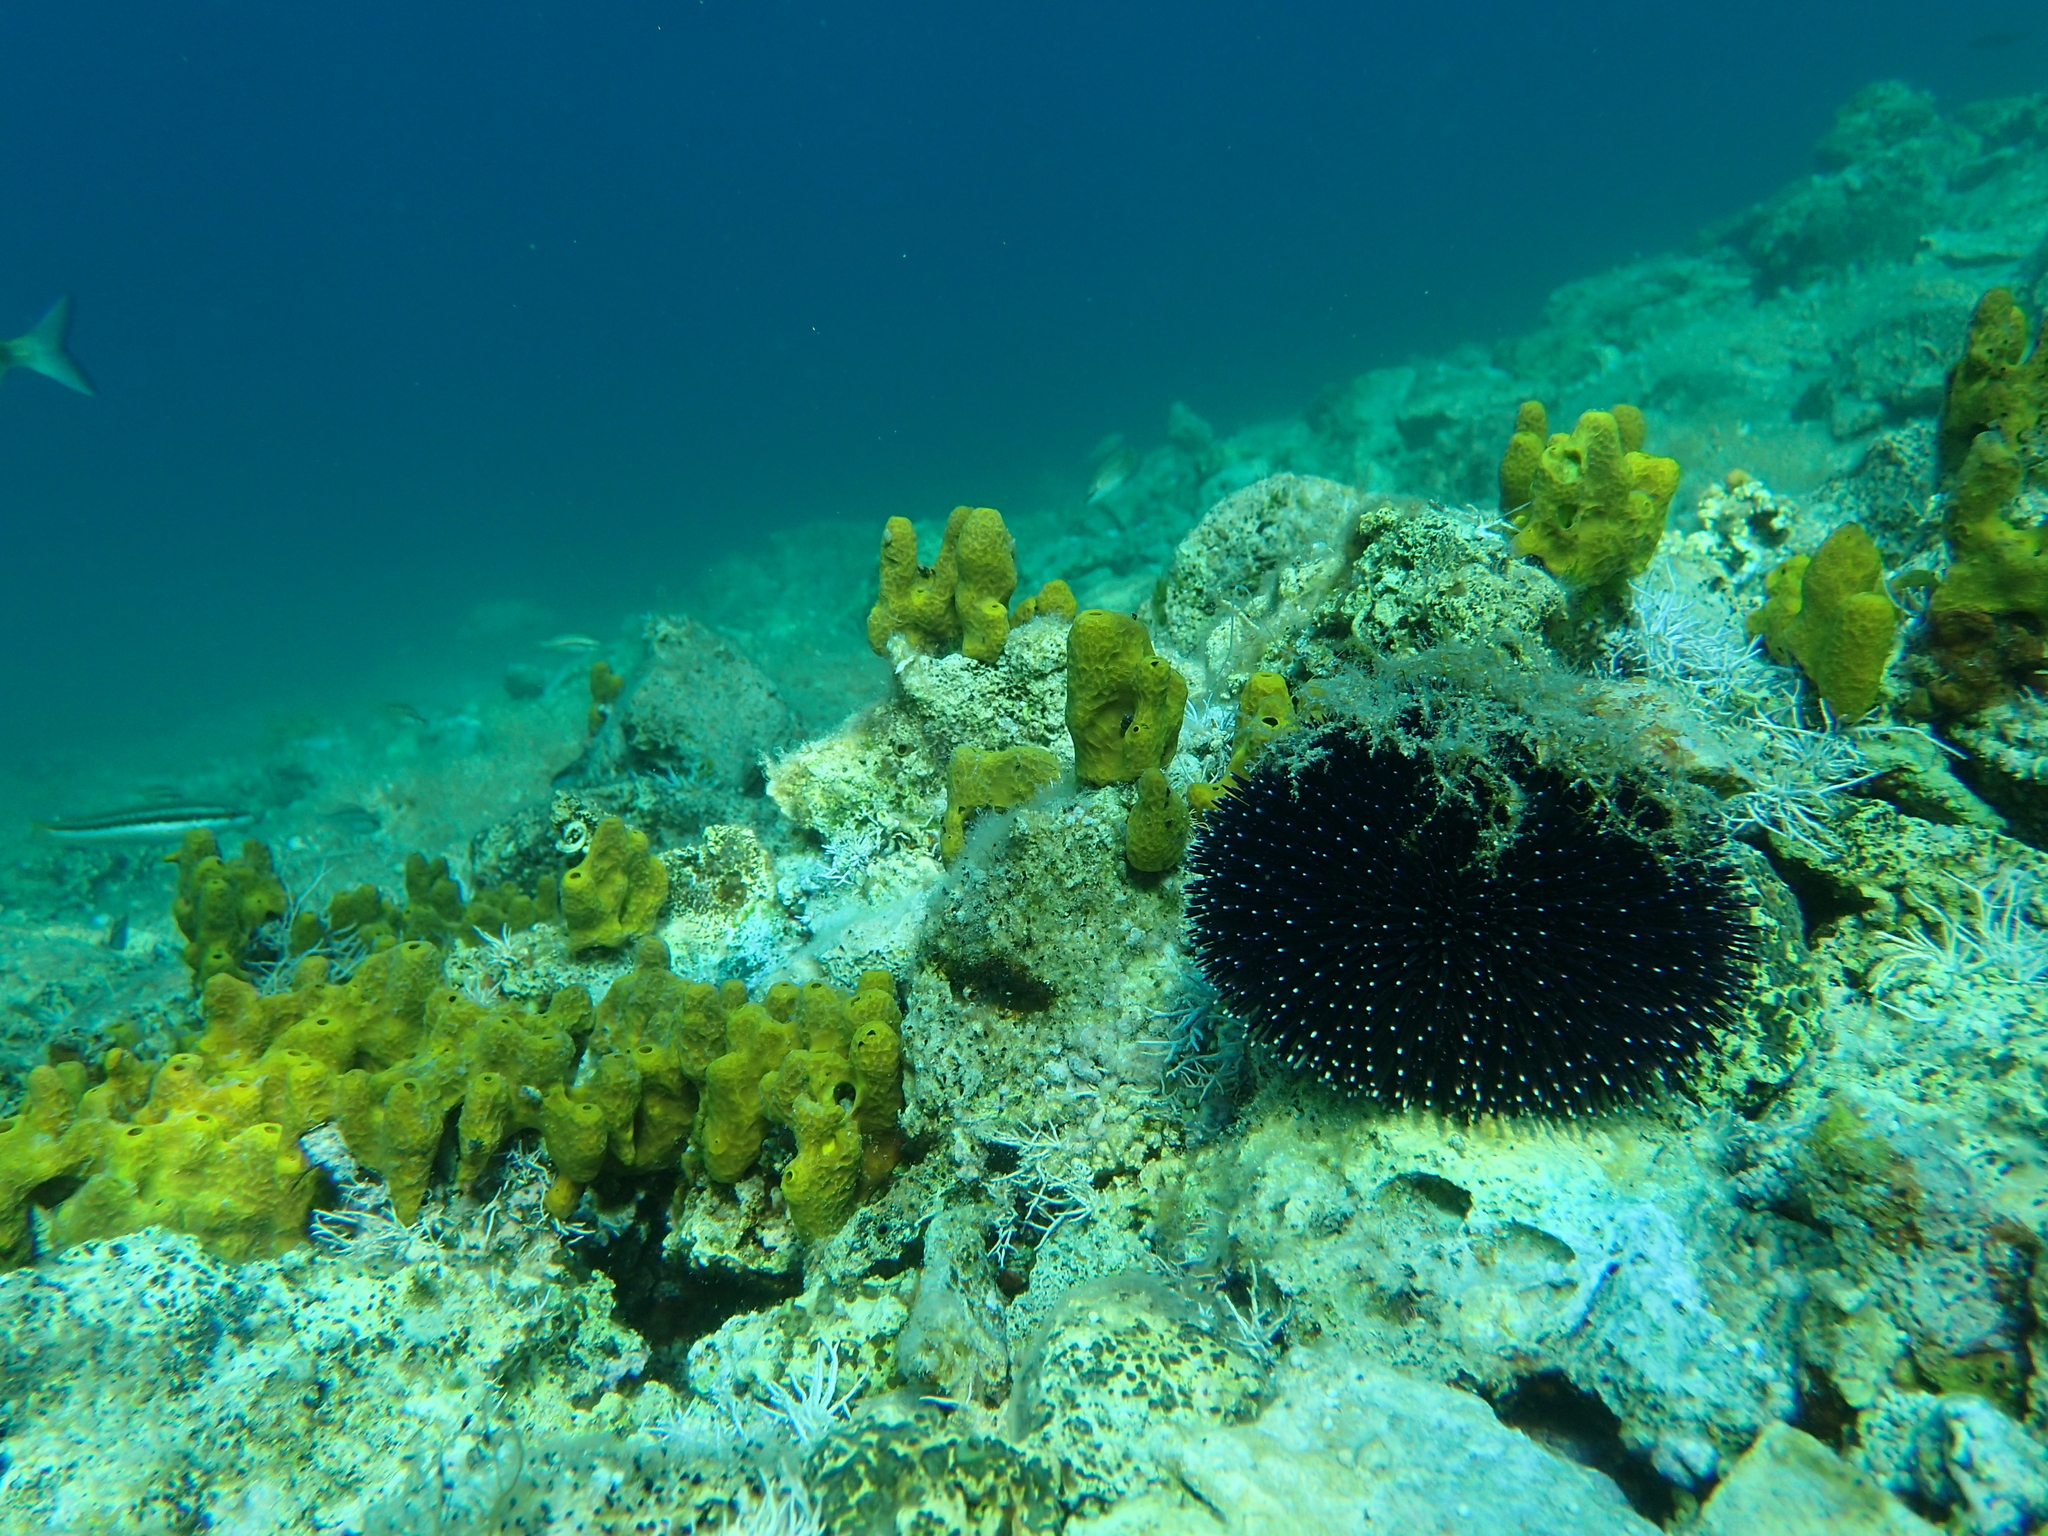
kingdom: Animalia
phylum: Echinodermata
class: Echinoidea
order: Camarodonta
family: Toxopneustidae
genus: Sphaerechinus
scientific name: Sphaerechinus granularis
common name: Violet sea urchin
